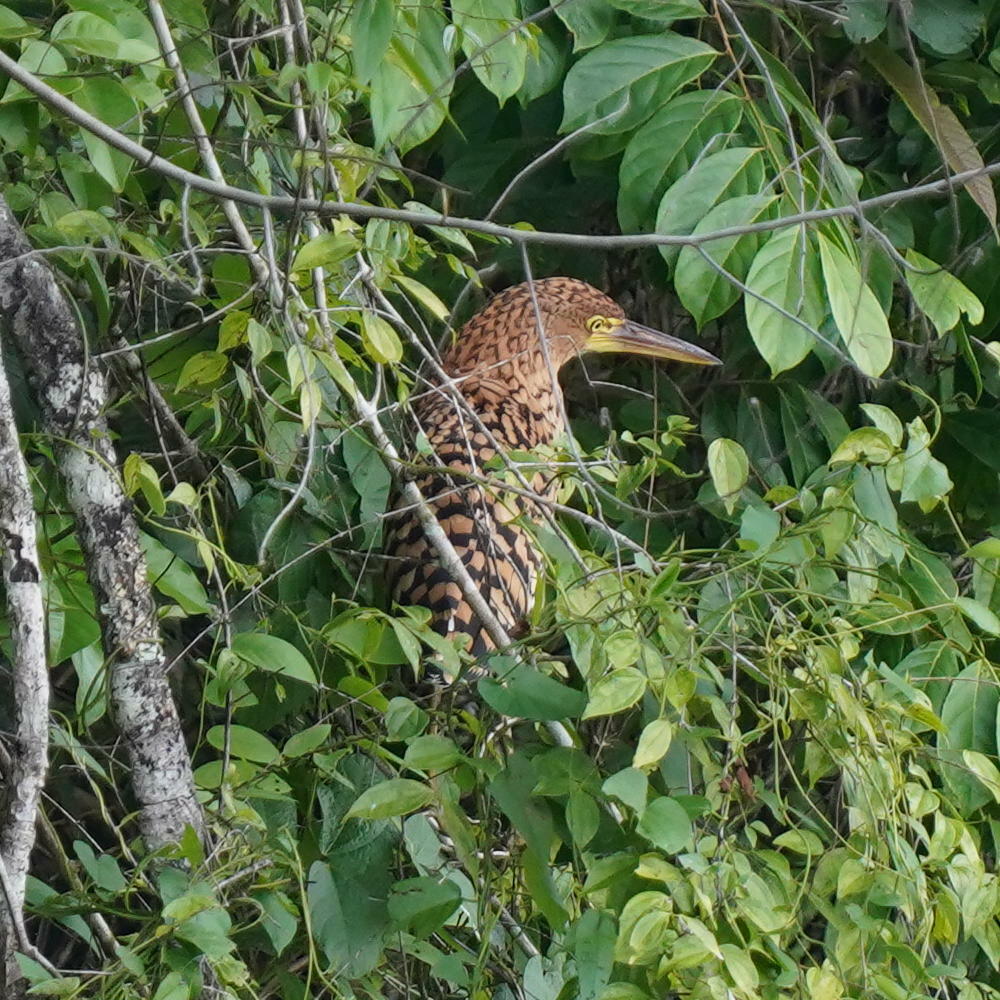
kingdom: Animalia
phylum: Chordata
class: Aves
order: Pelecaniformes
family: Ardeidae
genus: Tigrisoma
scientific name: Tigrisoma lineatum
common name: Rufescent tiger-heron
